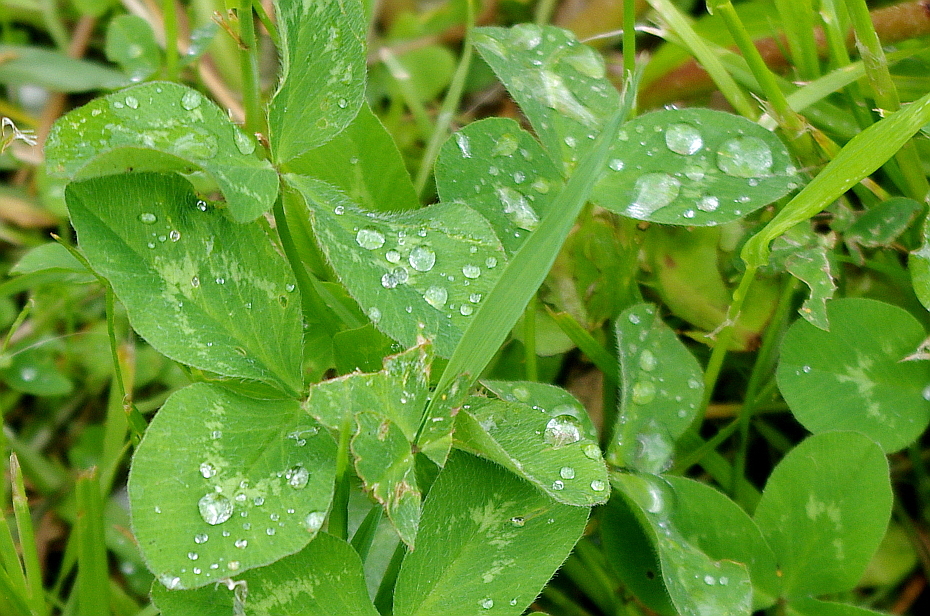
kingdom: Plantae
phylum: Tracheophyta
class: Magnoliopsida
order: Fabales
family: Fabaceae
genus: Trifolium
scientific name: Trifolium pratense
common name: Red clover
